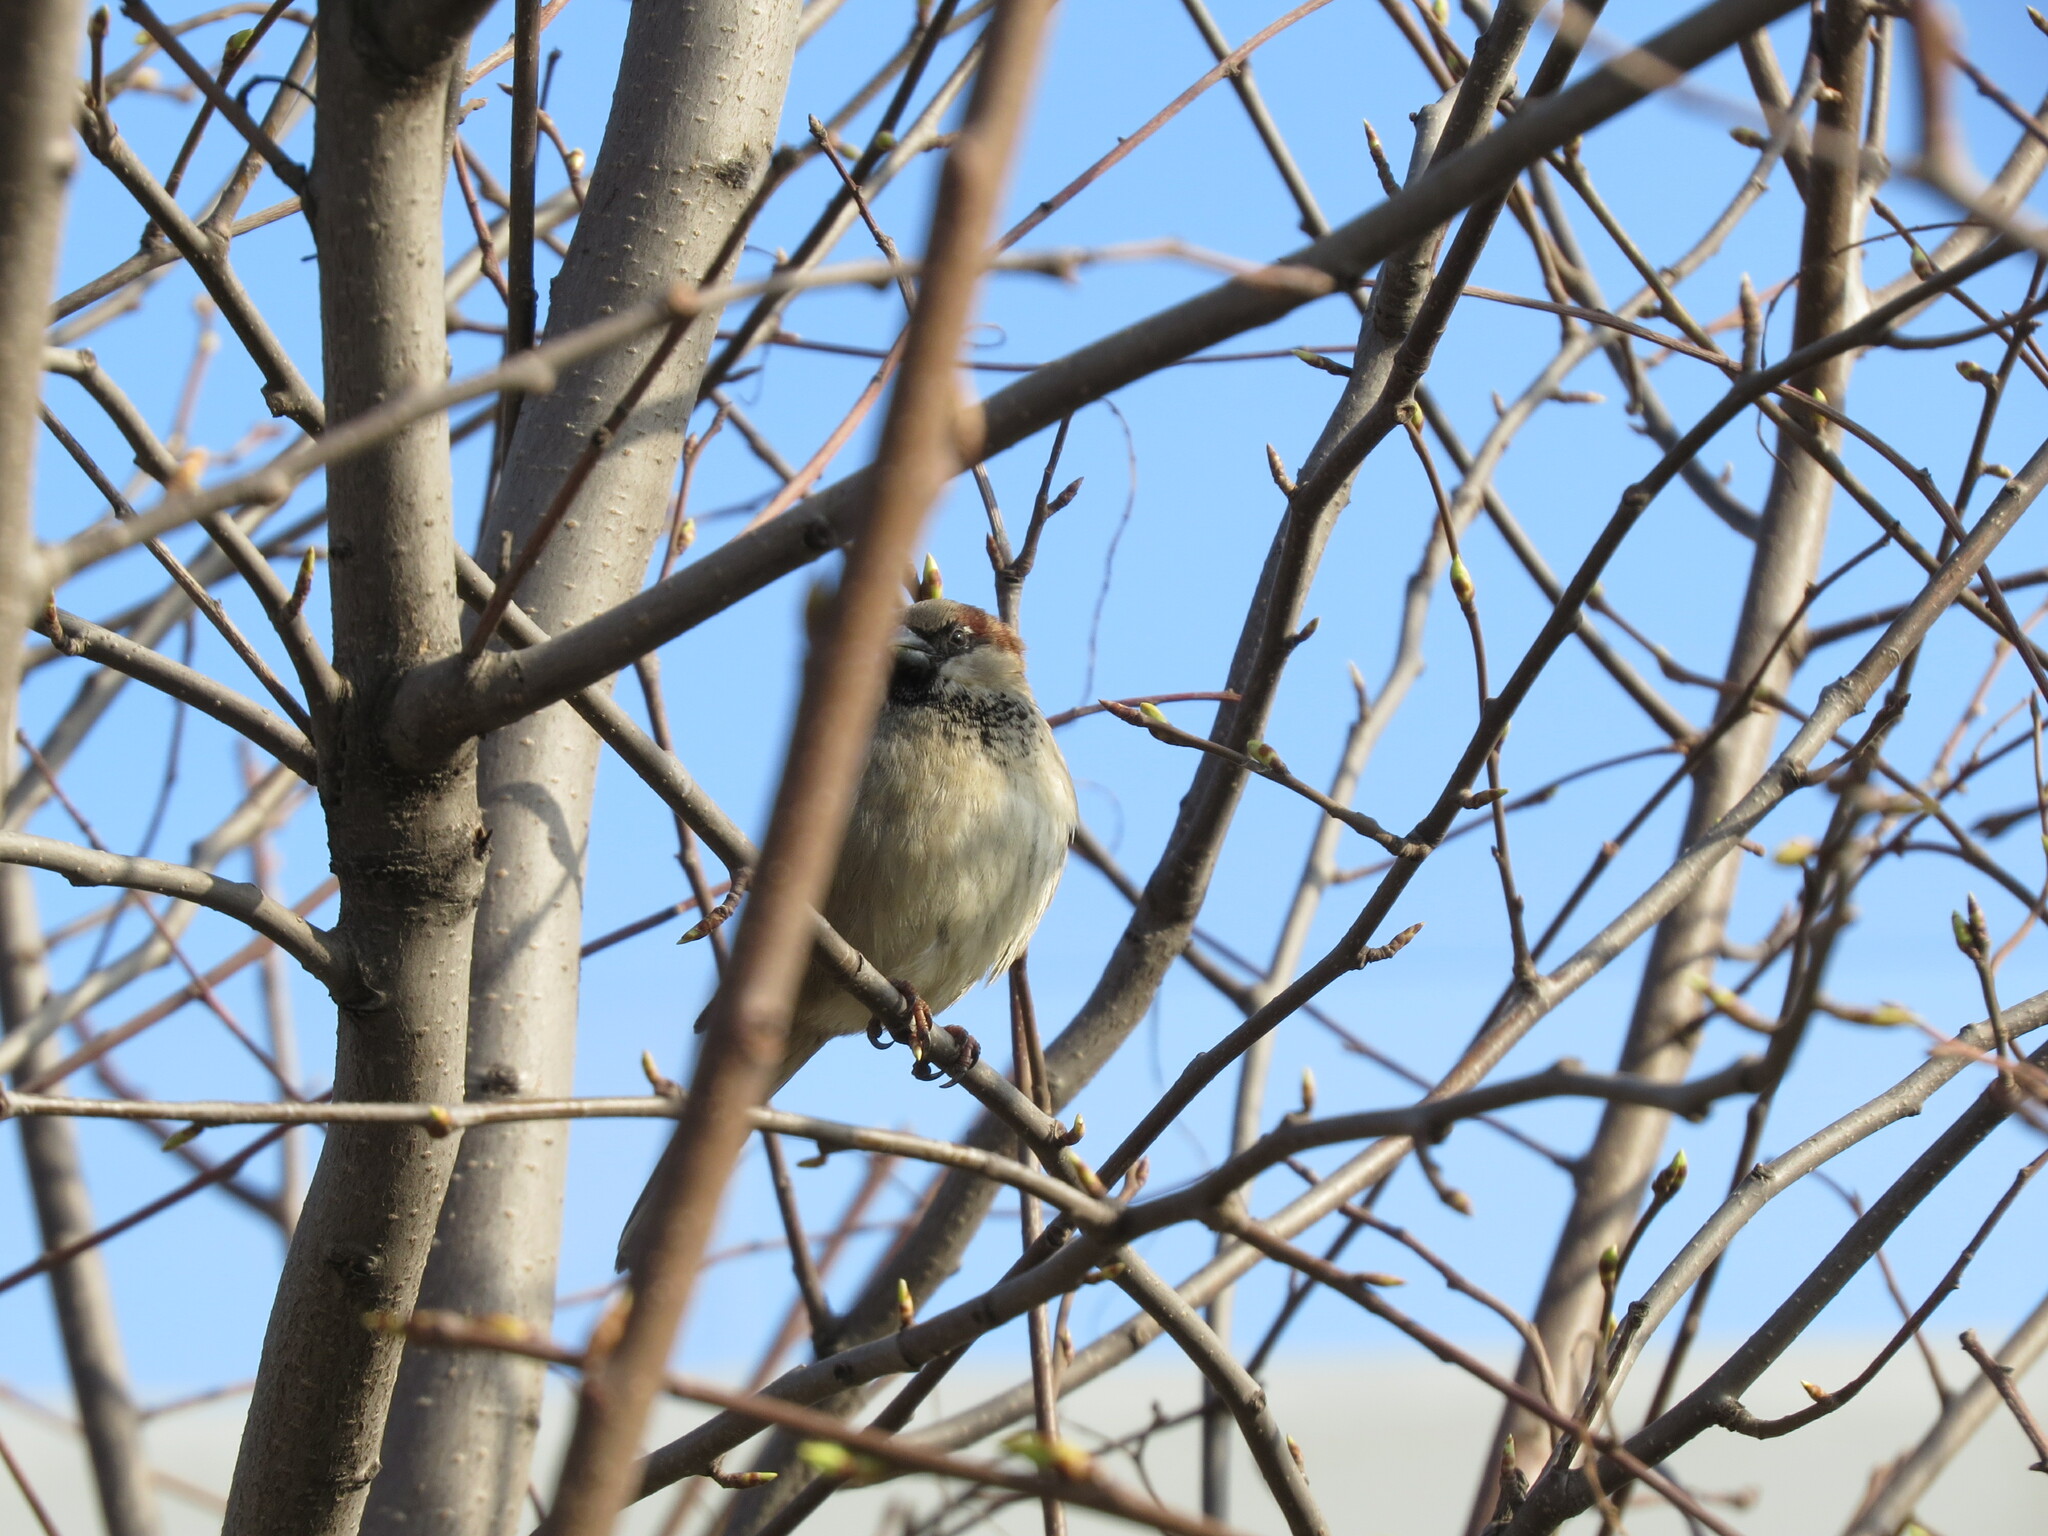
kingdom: Animalia
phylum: Chordata
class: Aves
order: Passeriformes
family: Passeridae
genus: Passer
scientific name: Passer domesticus
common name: House sparrow
